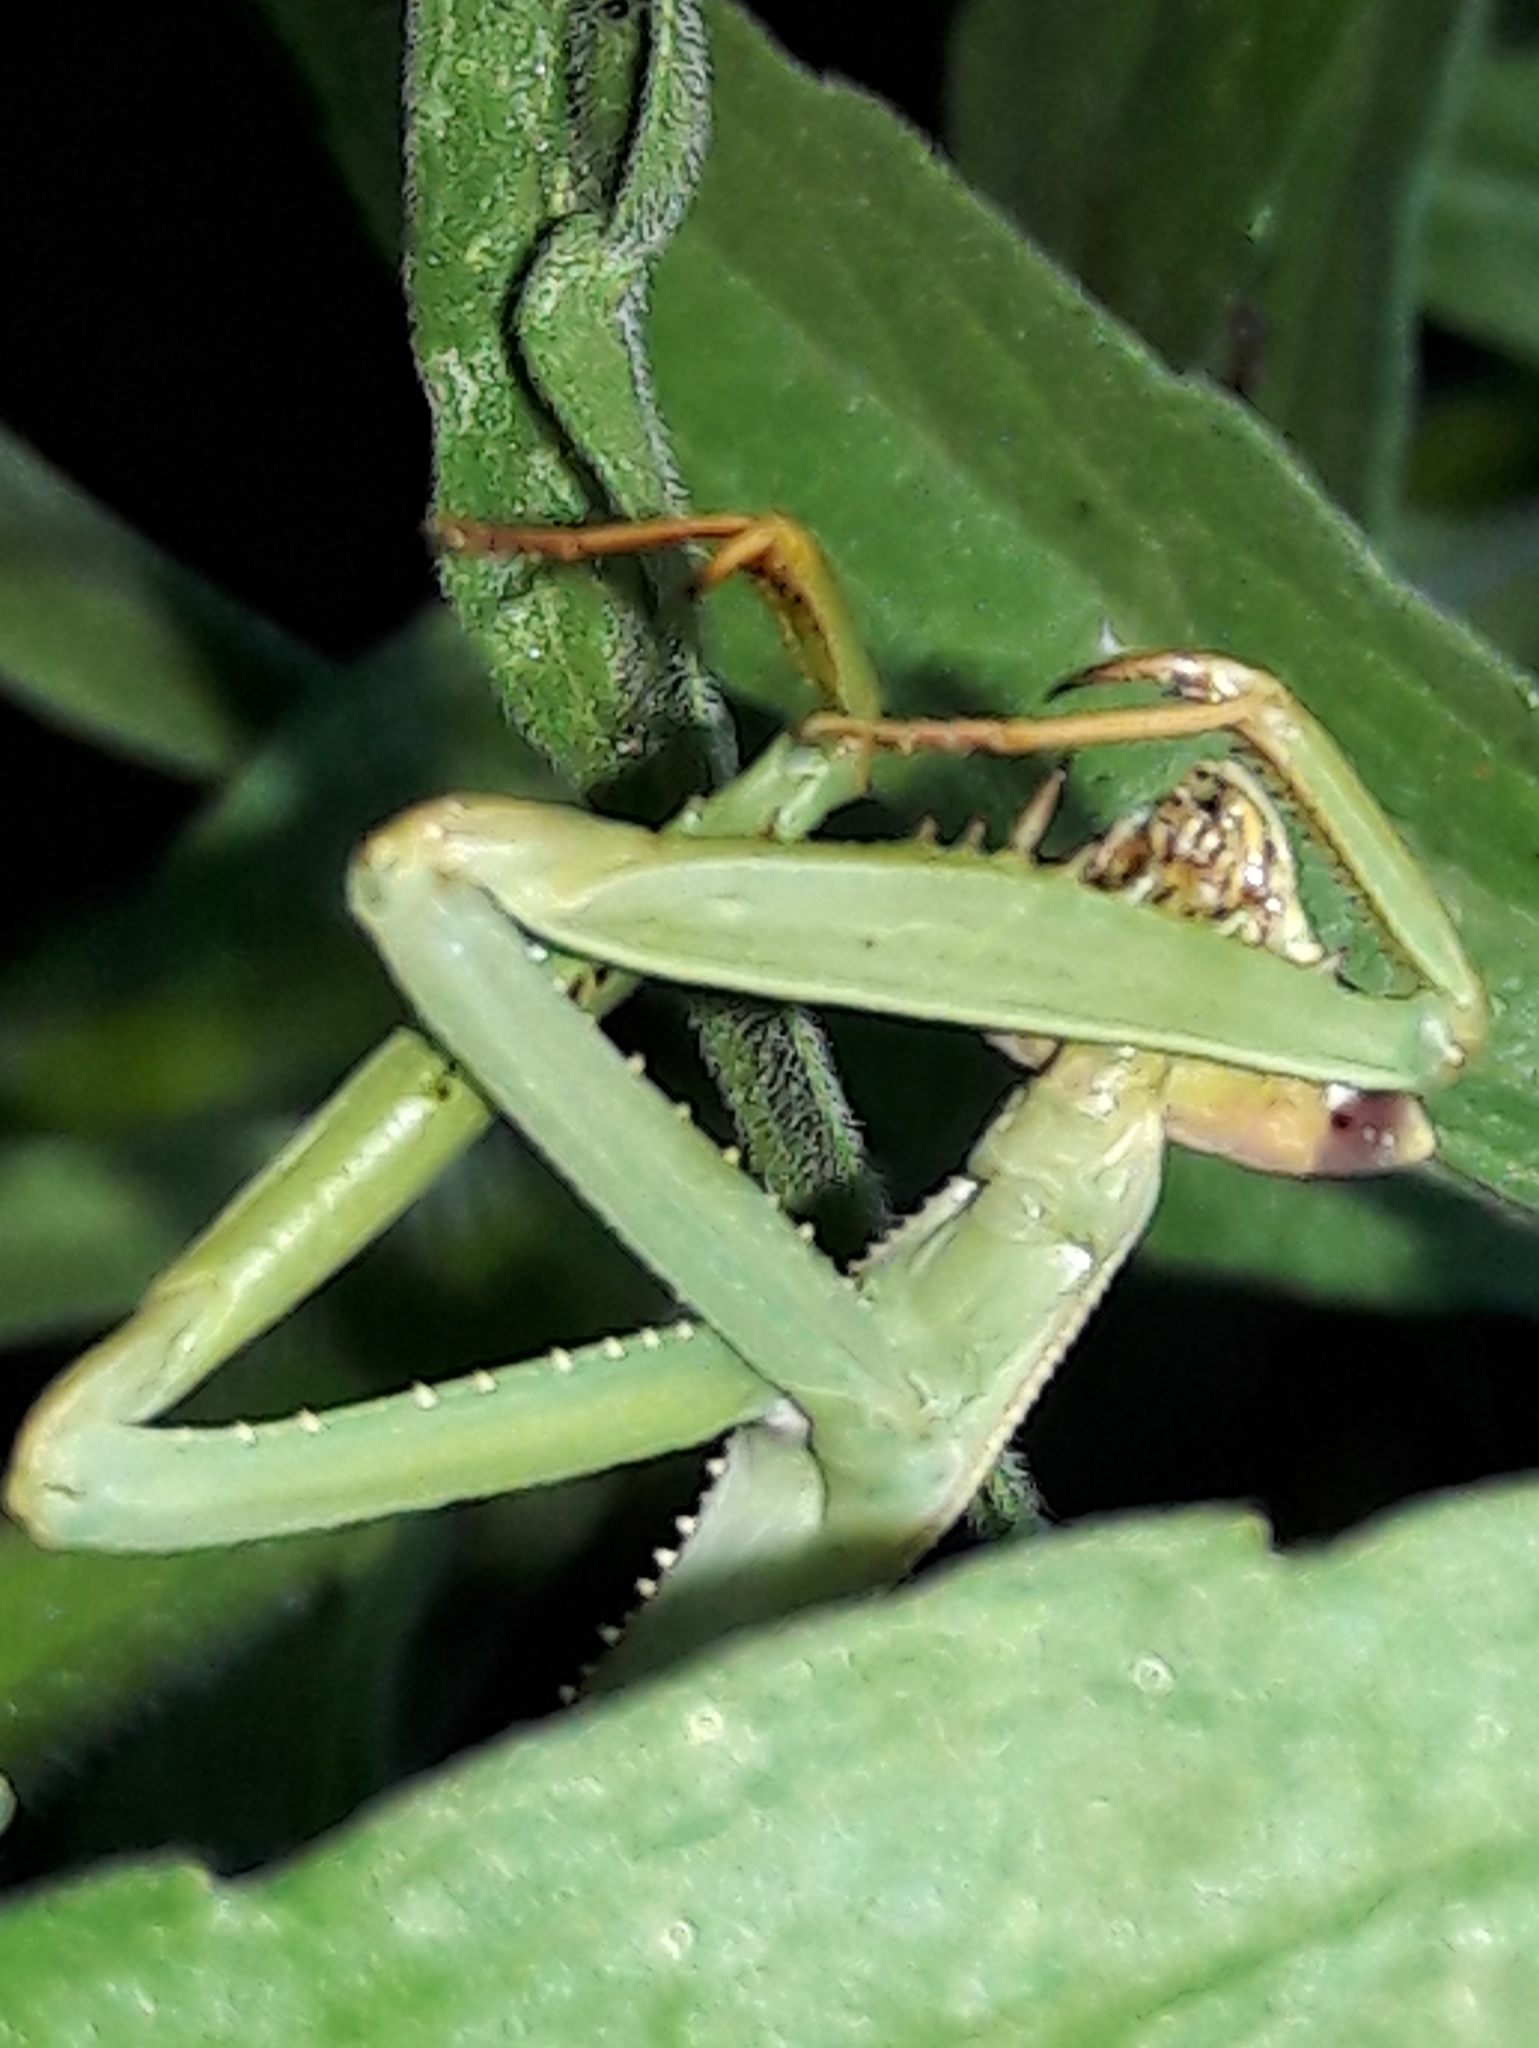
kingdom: Animalia
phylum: Arthropoda
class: Insecta
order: Mantodea
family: Mantidae
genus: Oxyopsis
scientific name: Oxyopsis
